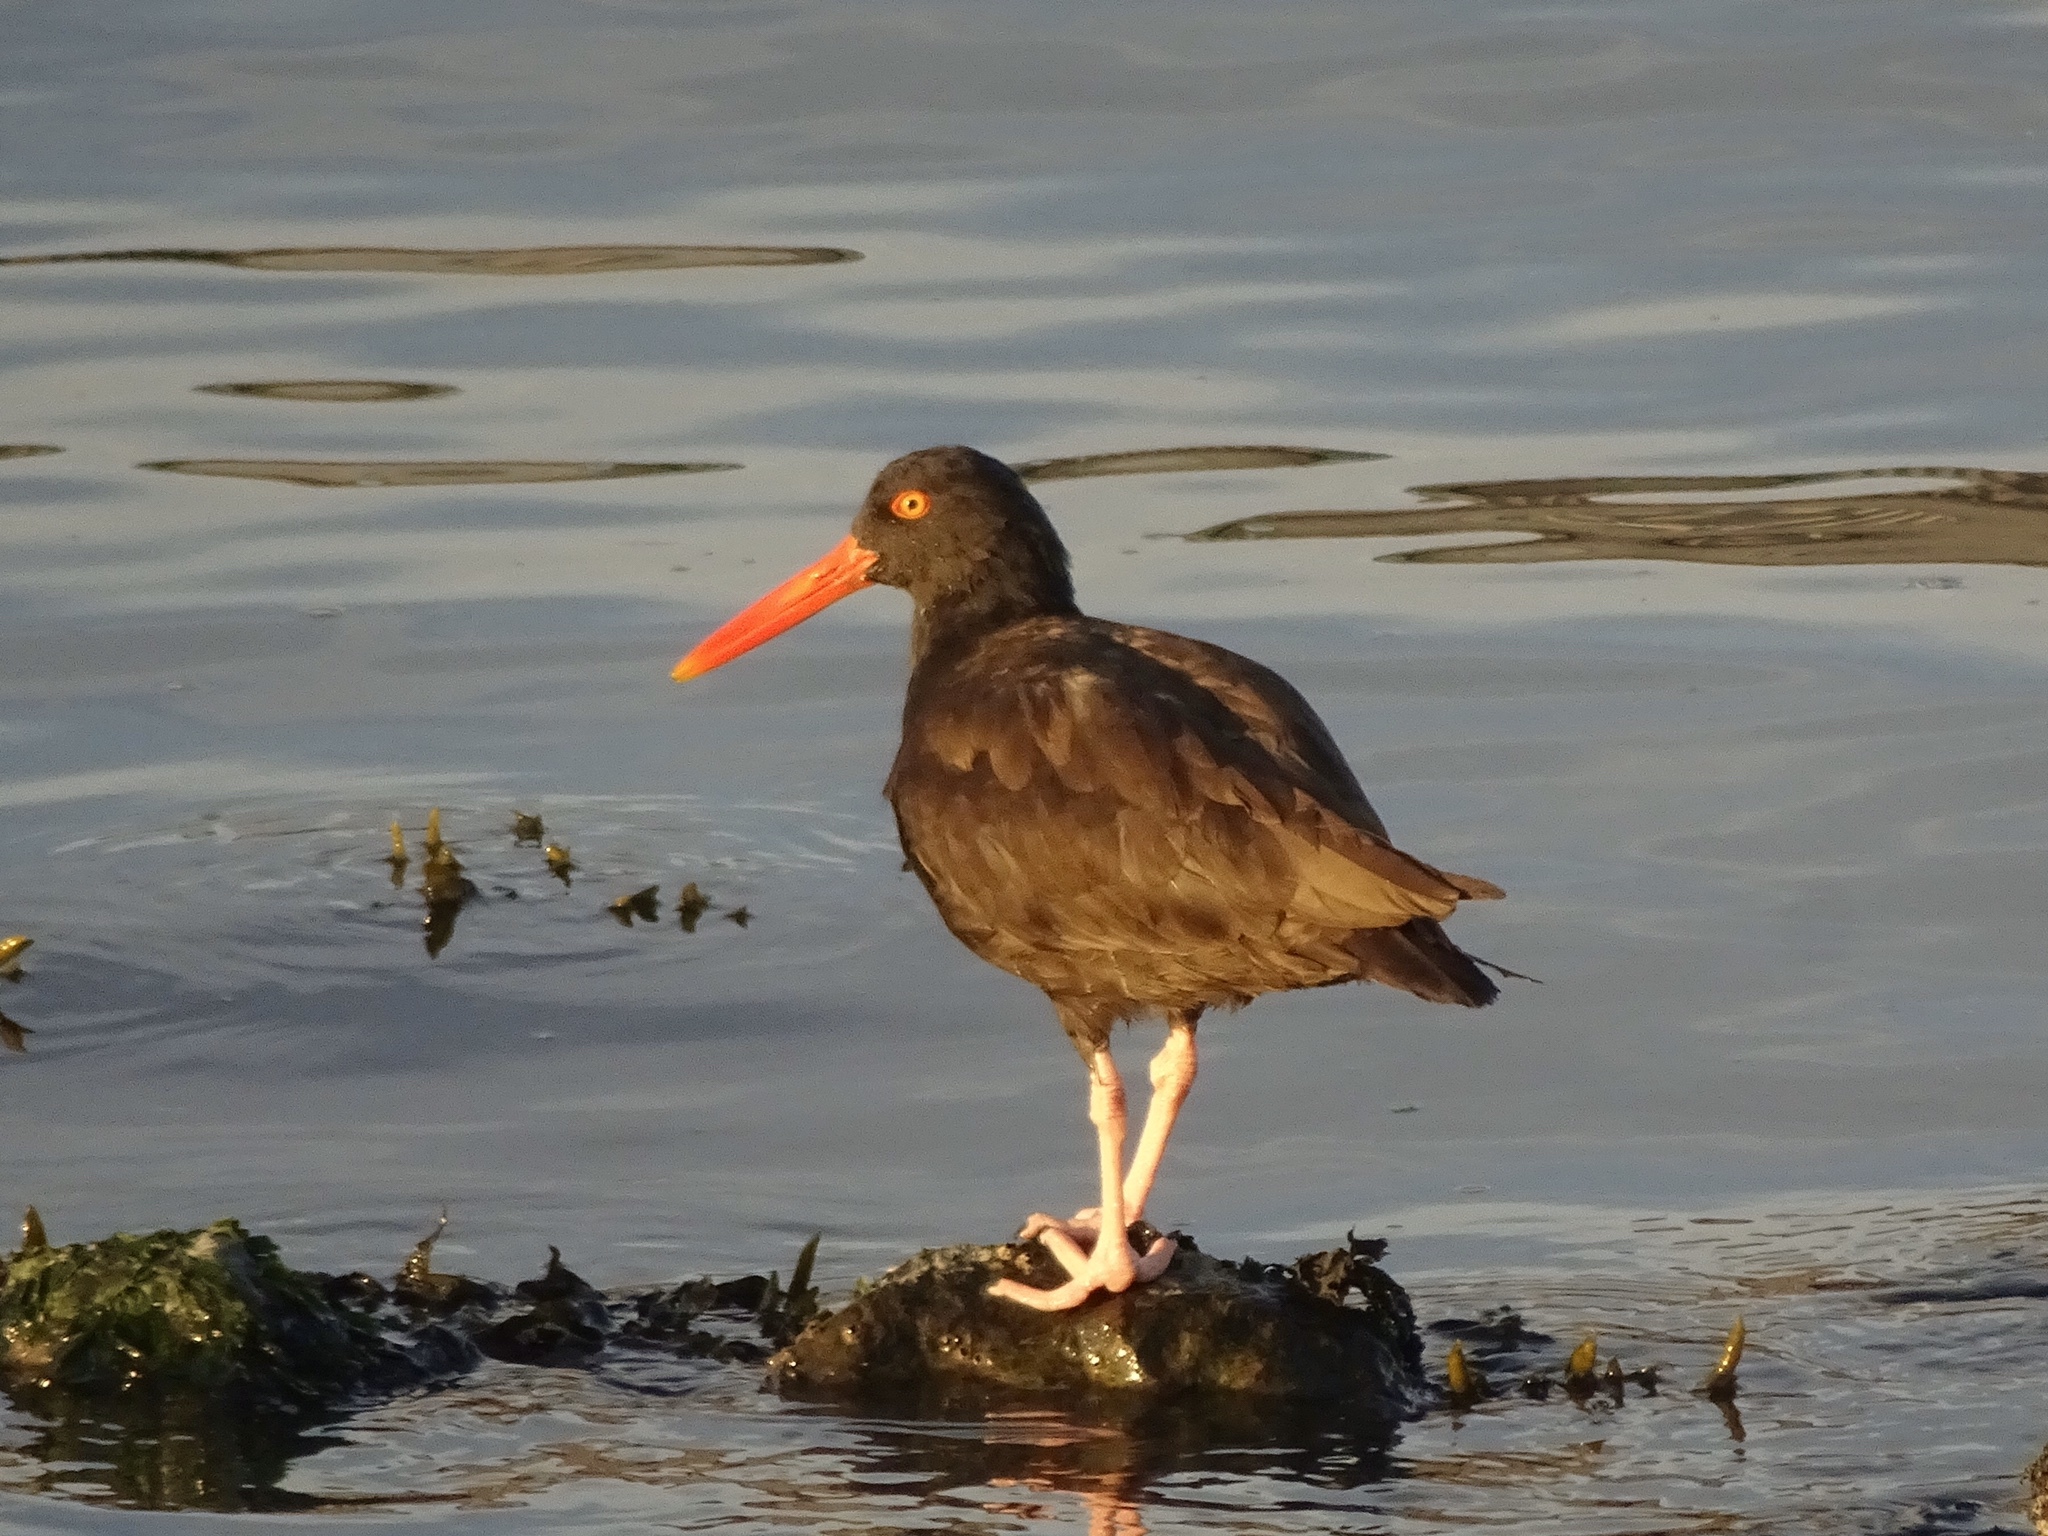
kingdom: Animalia
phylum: Chordata
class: Aves
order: Charadriiformes
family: Haematopodidae
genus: Haematopus
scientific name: Haematopus bachmani
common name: Black oystercatcher
